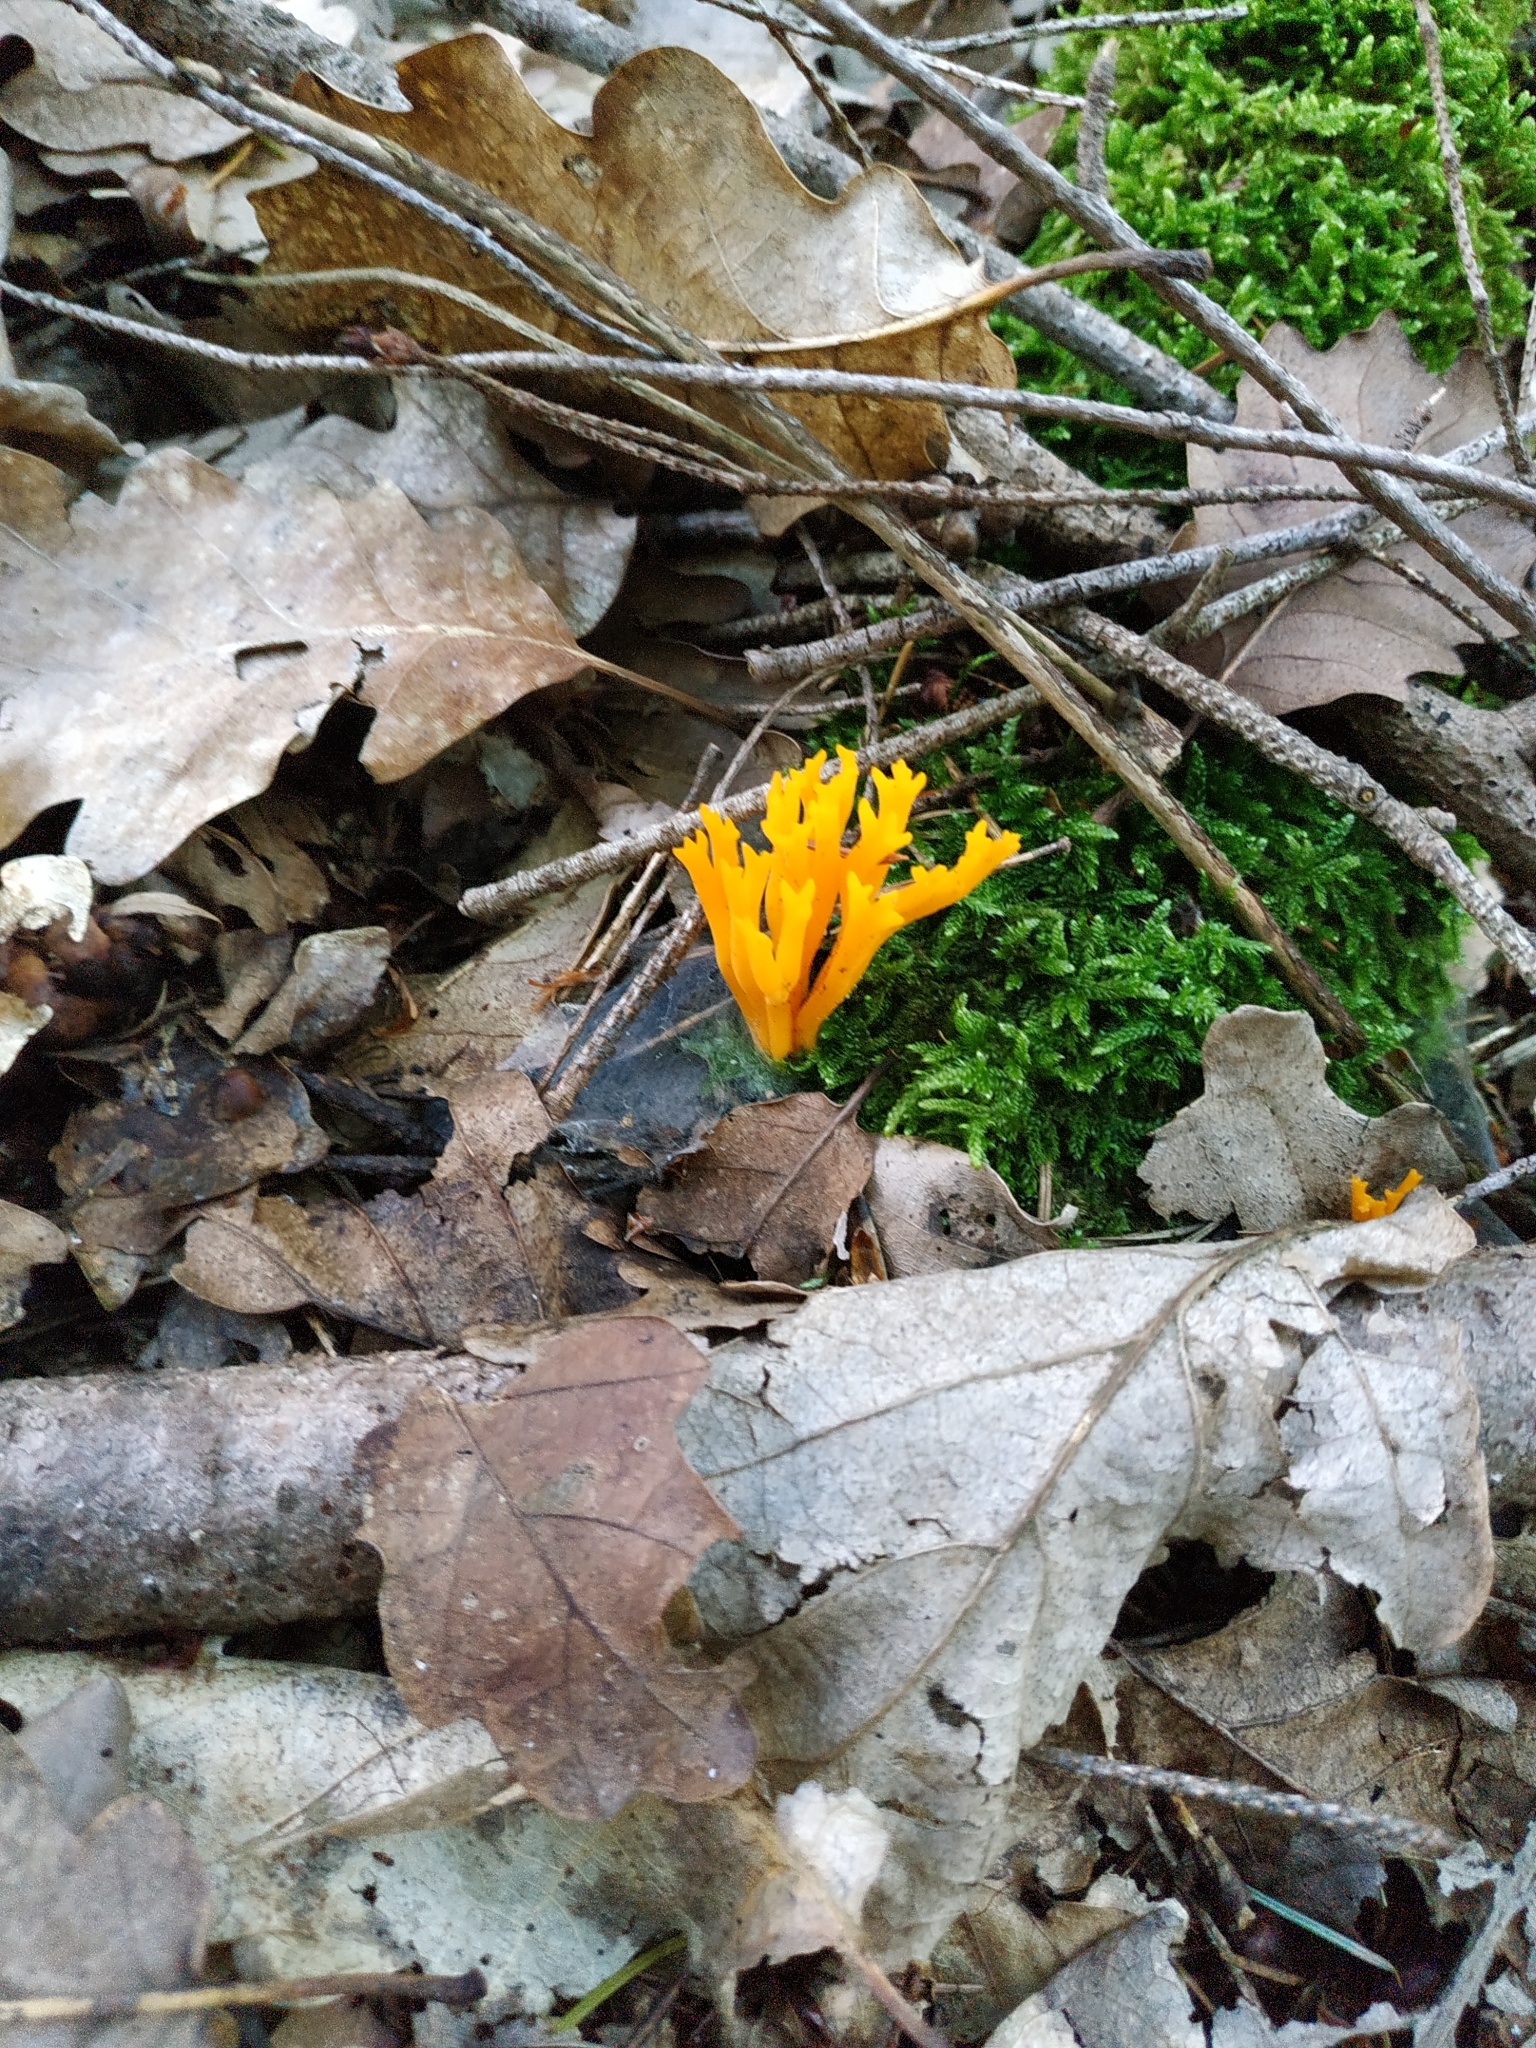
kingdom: Fungi
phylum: Basidiomycota
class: Dacrymycetes
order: Dacrymycetales
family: Dacrymycetaceae
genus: Calocera
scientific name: Calocera viscosa
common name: Yellow stagshorn
